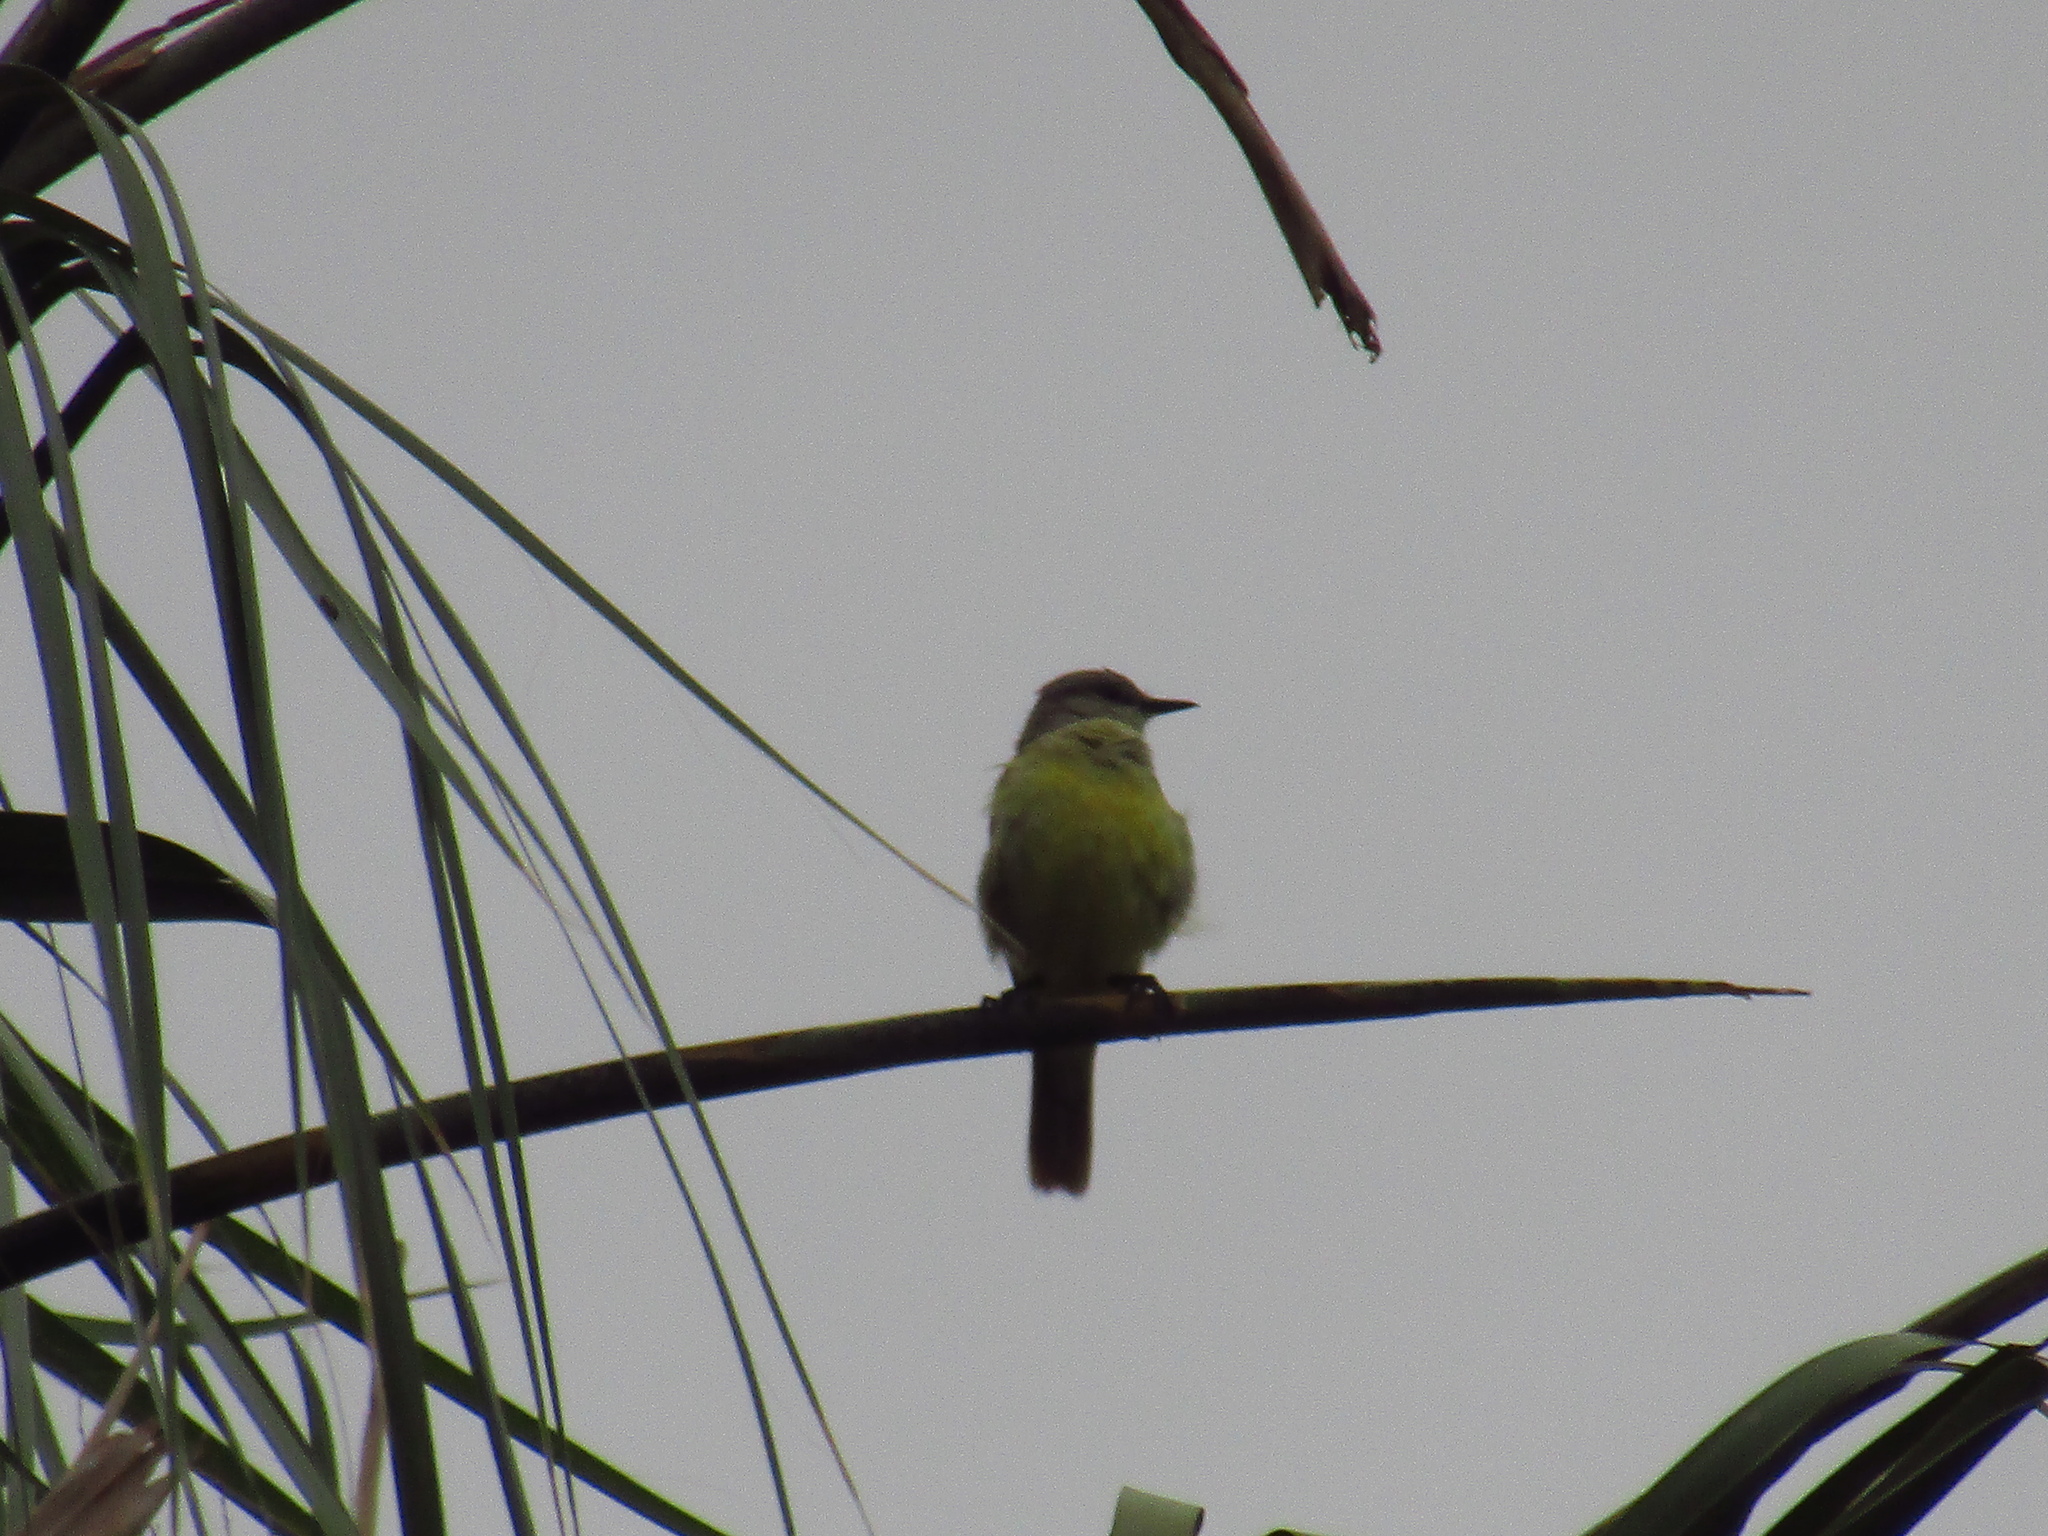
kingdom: Animalia
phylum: Chordata
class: Aves
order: Passeriformes
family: Tyrannidae
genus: Machetornis
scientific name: Machetornis rixosa
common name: Cattle tyrant
